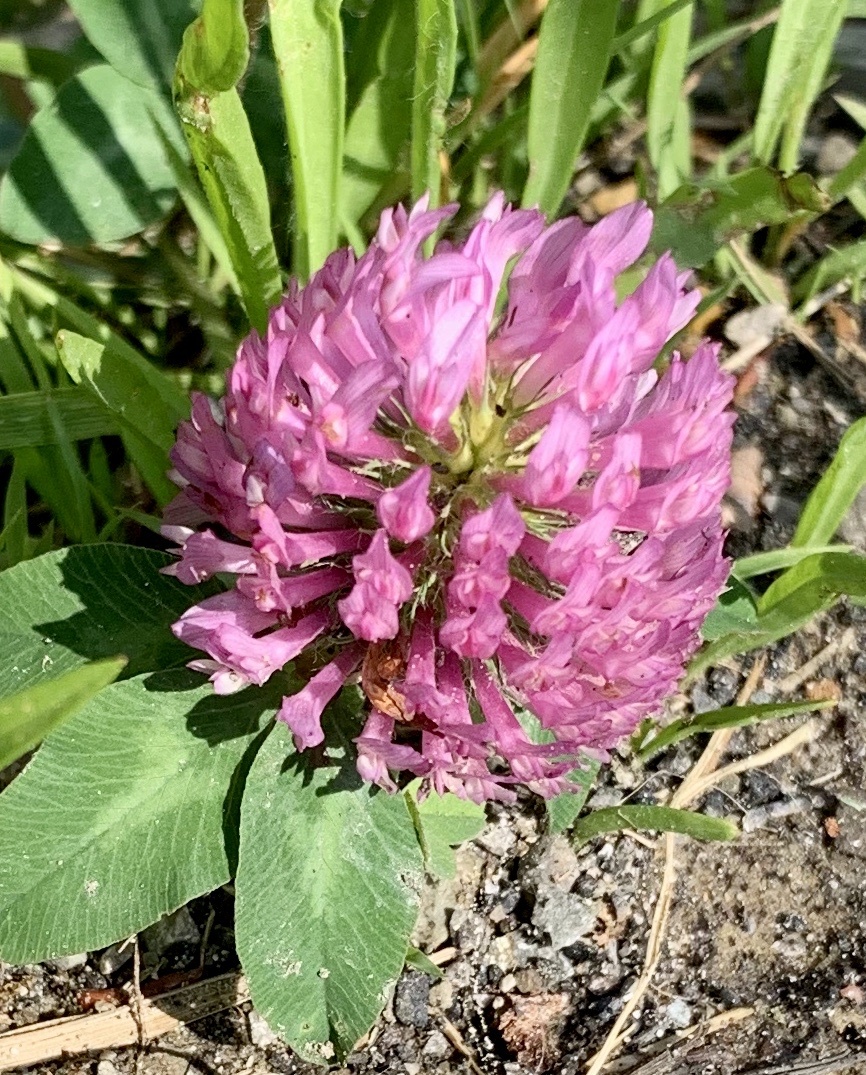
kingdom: Plantae
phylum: Tracheophyta
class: Magnoliopsida
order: Fabales
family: Fabaceae
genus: Trifolium
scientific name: Trifolium pratense
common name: Red clover
